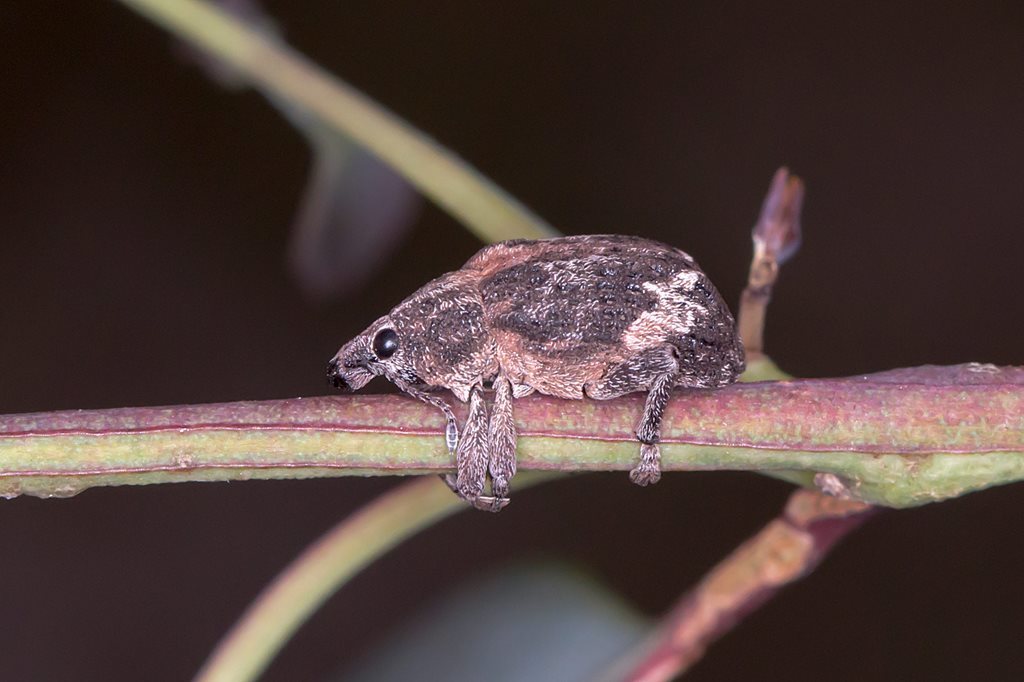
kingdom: Animalia
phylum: Arthropoda
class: Insecta
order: Coleoptera
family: Curculionidae
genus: Oxyops
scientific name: Oxyops fasciatus
